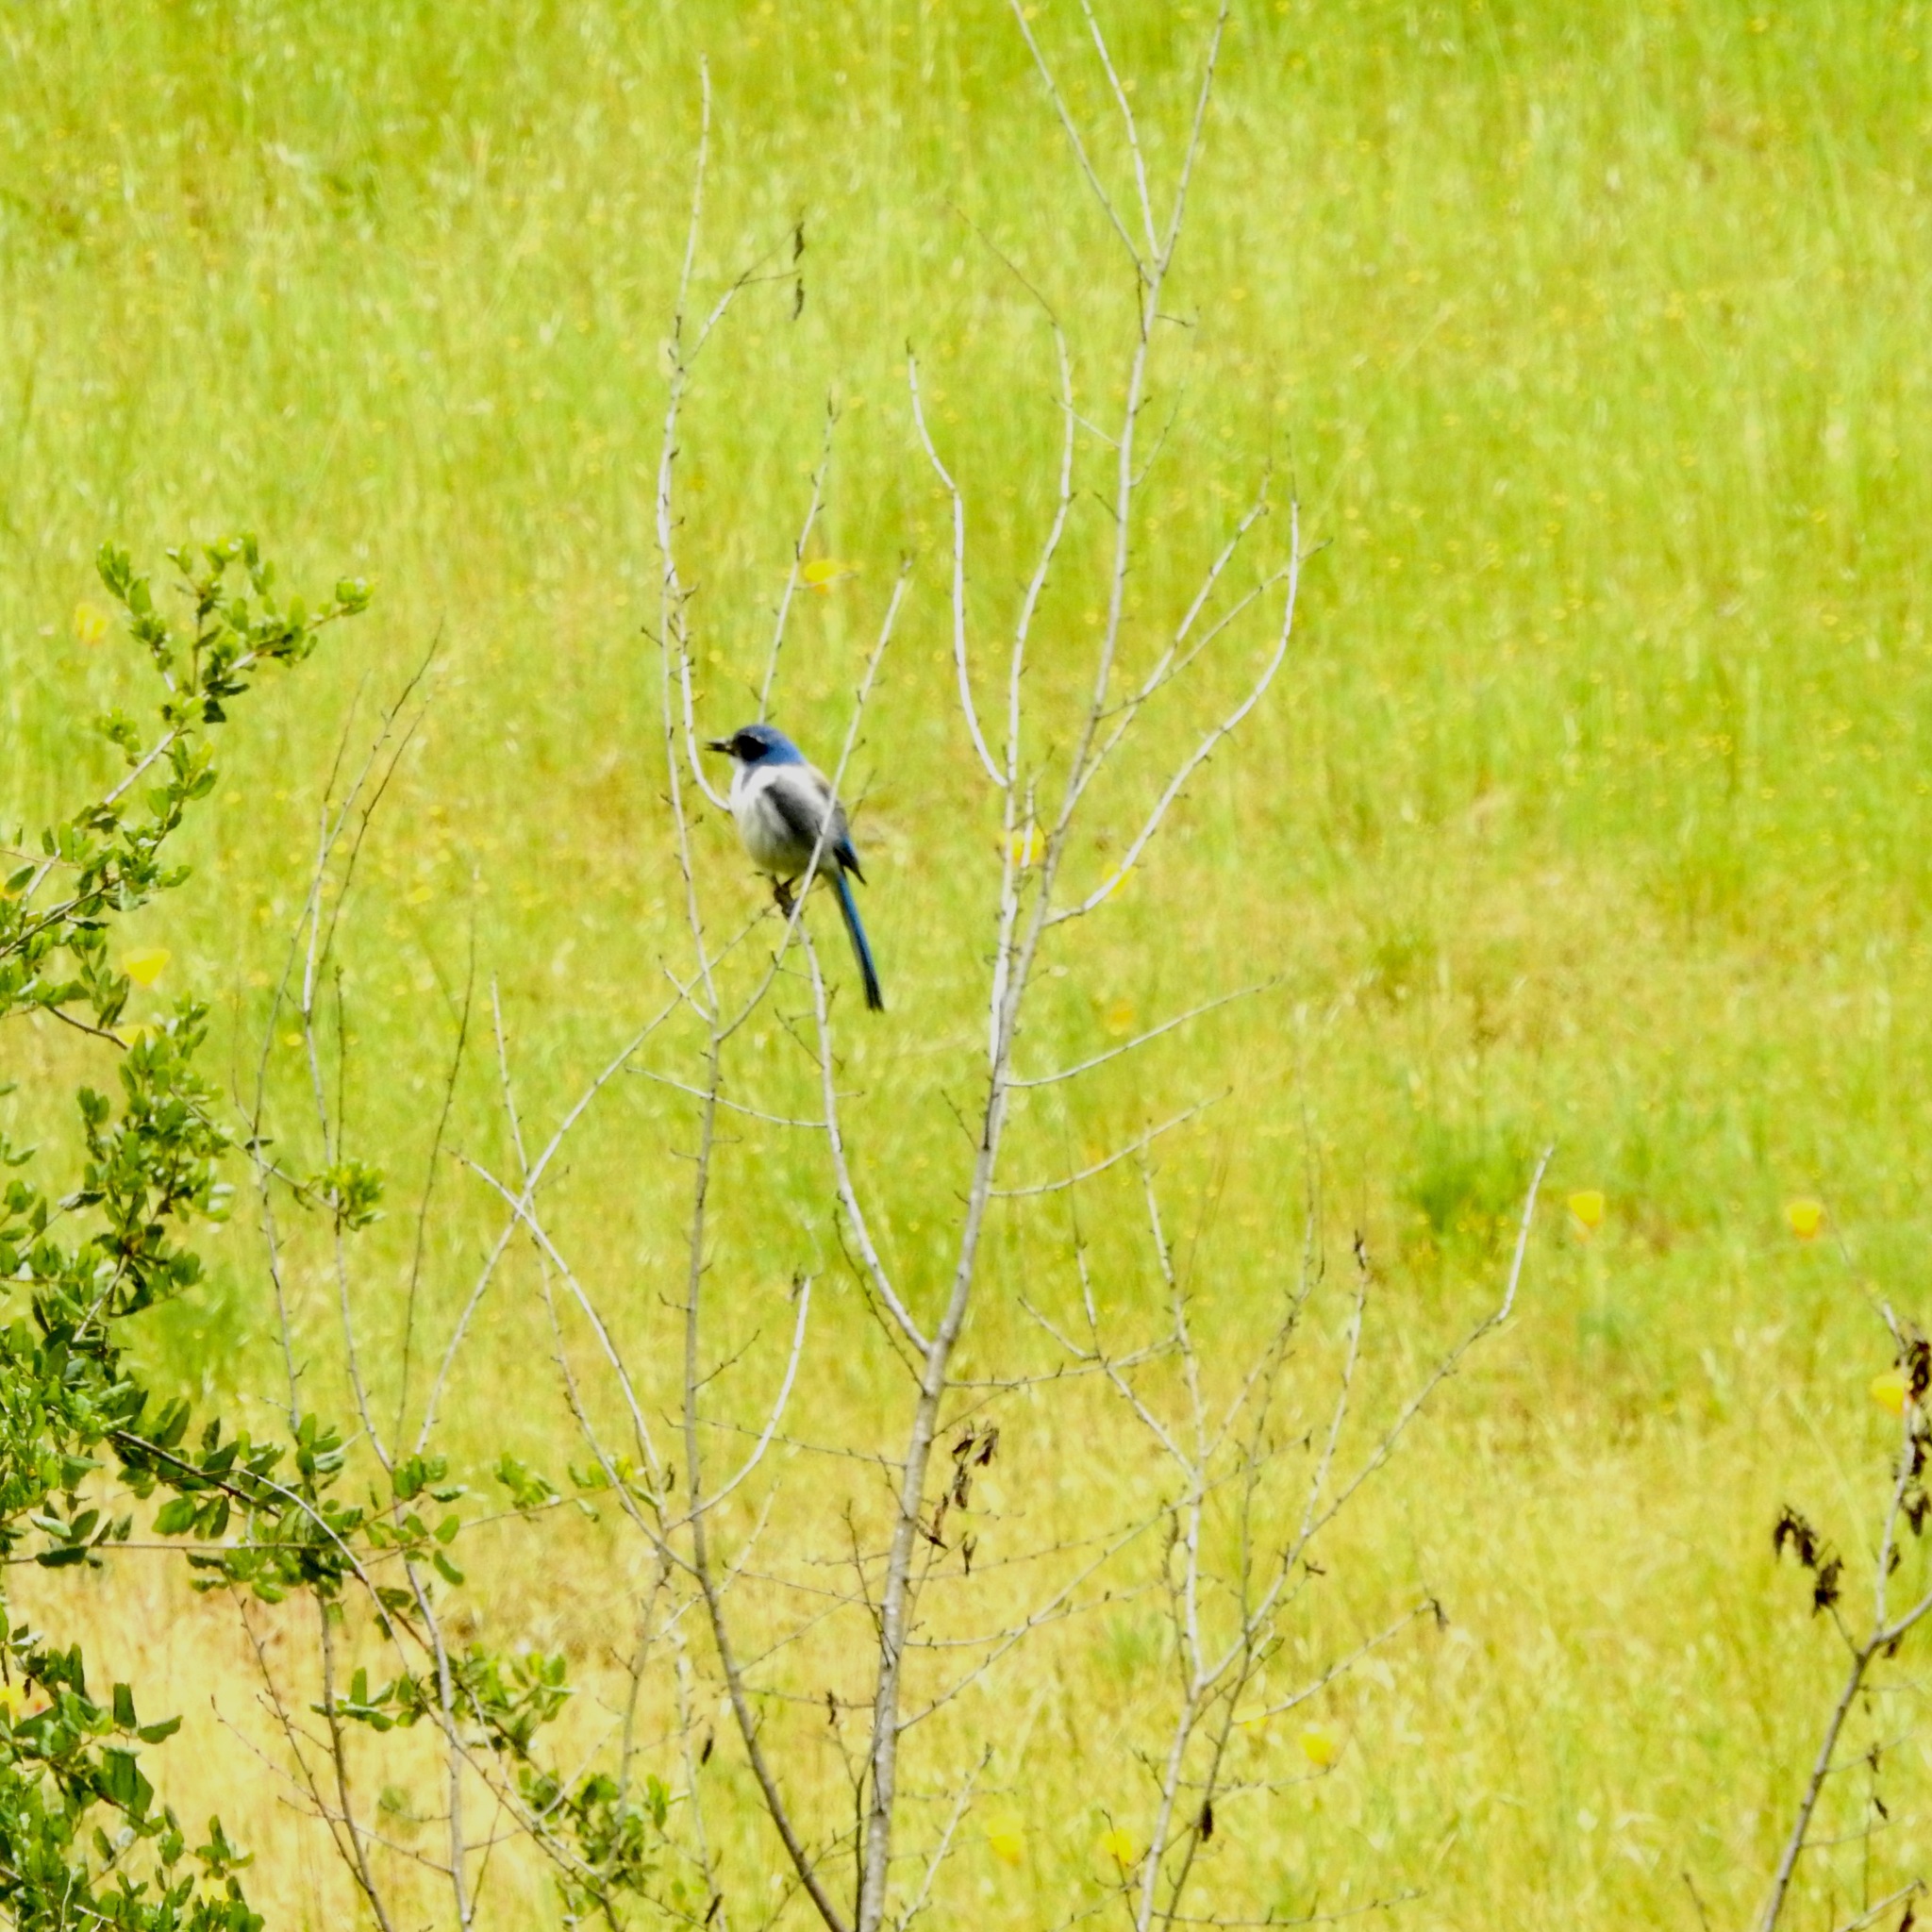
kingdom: Animalia
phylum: Chordata
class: Aves
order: Passeriformes
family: Corvidae
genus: Aphelocoma
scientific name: Aphelocoma californica
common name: California scrub-jay
